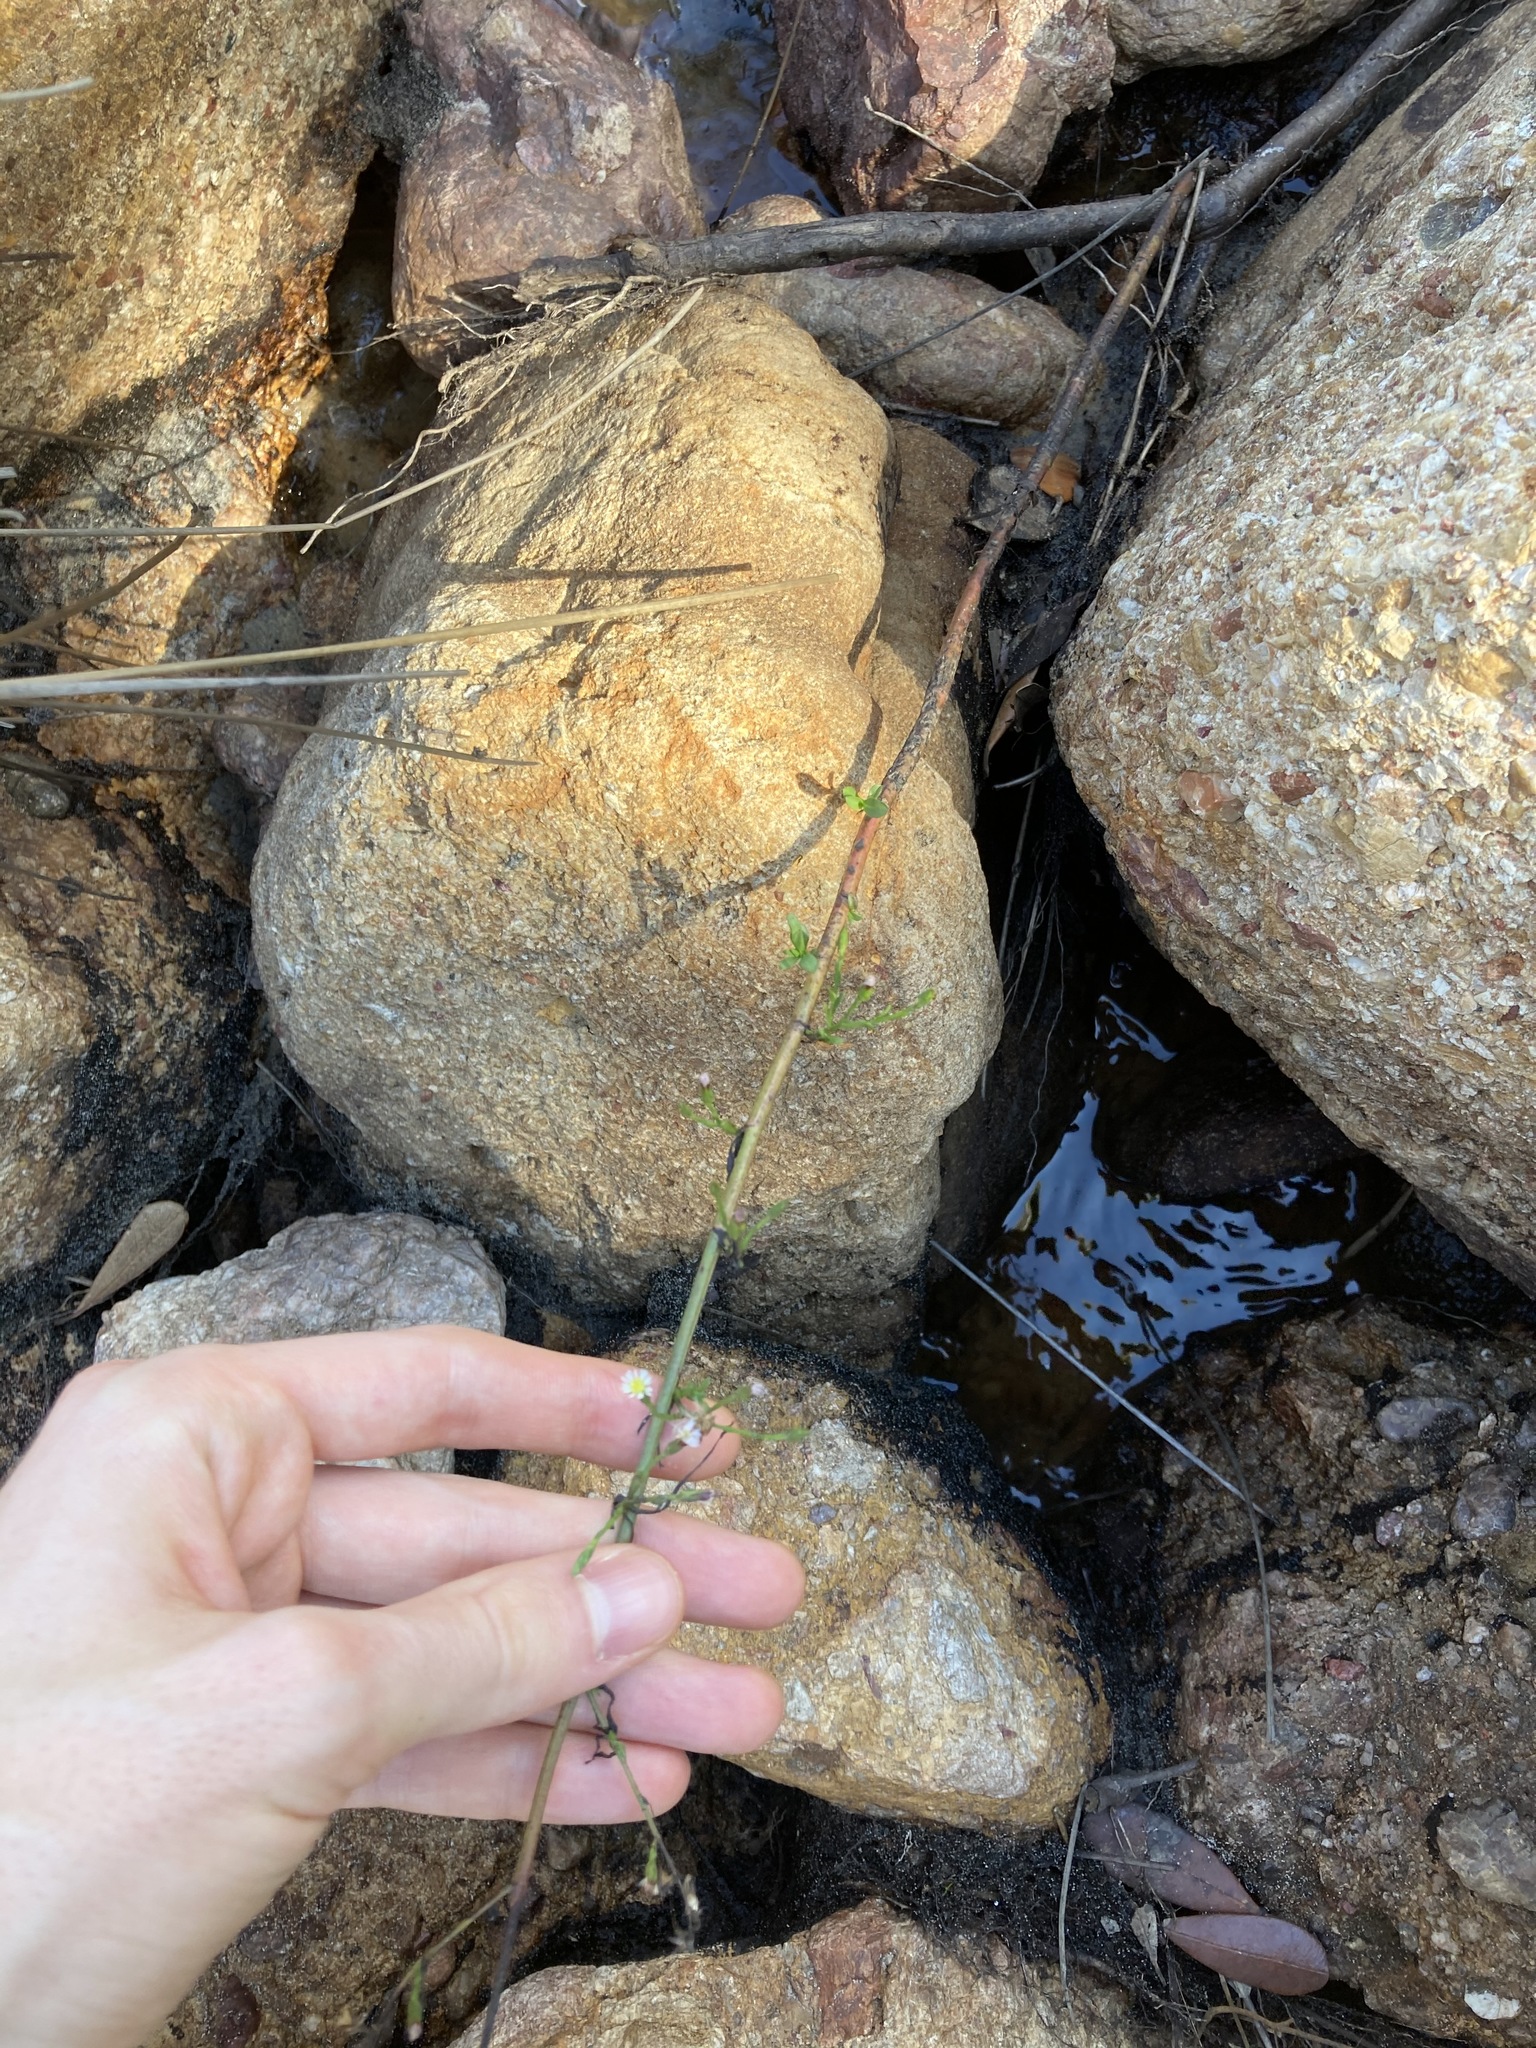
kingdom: Plantae
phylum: Tracheophyta
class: Magnoliopsida
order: Asterales
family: Asteraceae
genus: Symphyotrichum
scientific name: Symphyotrichum subulatum
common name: Annual saltmarsh aster
